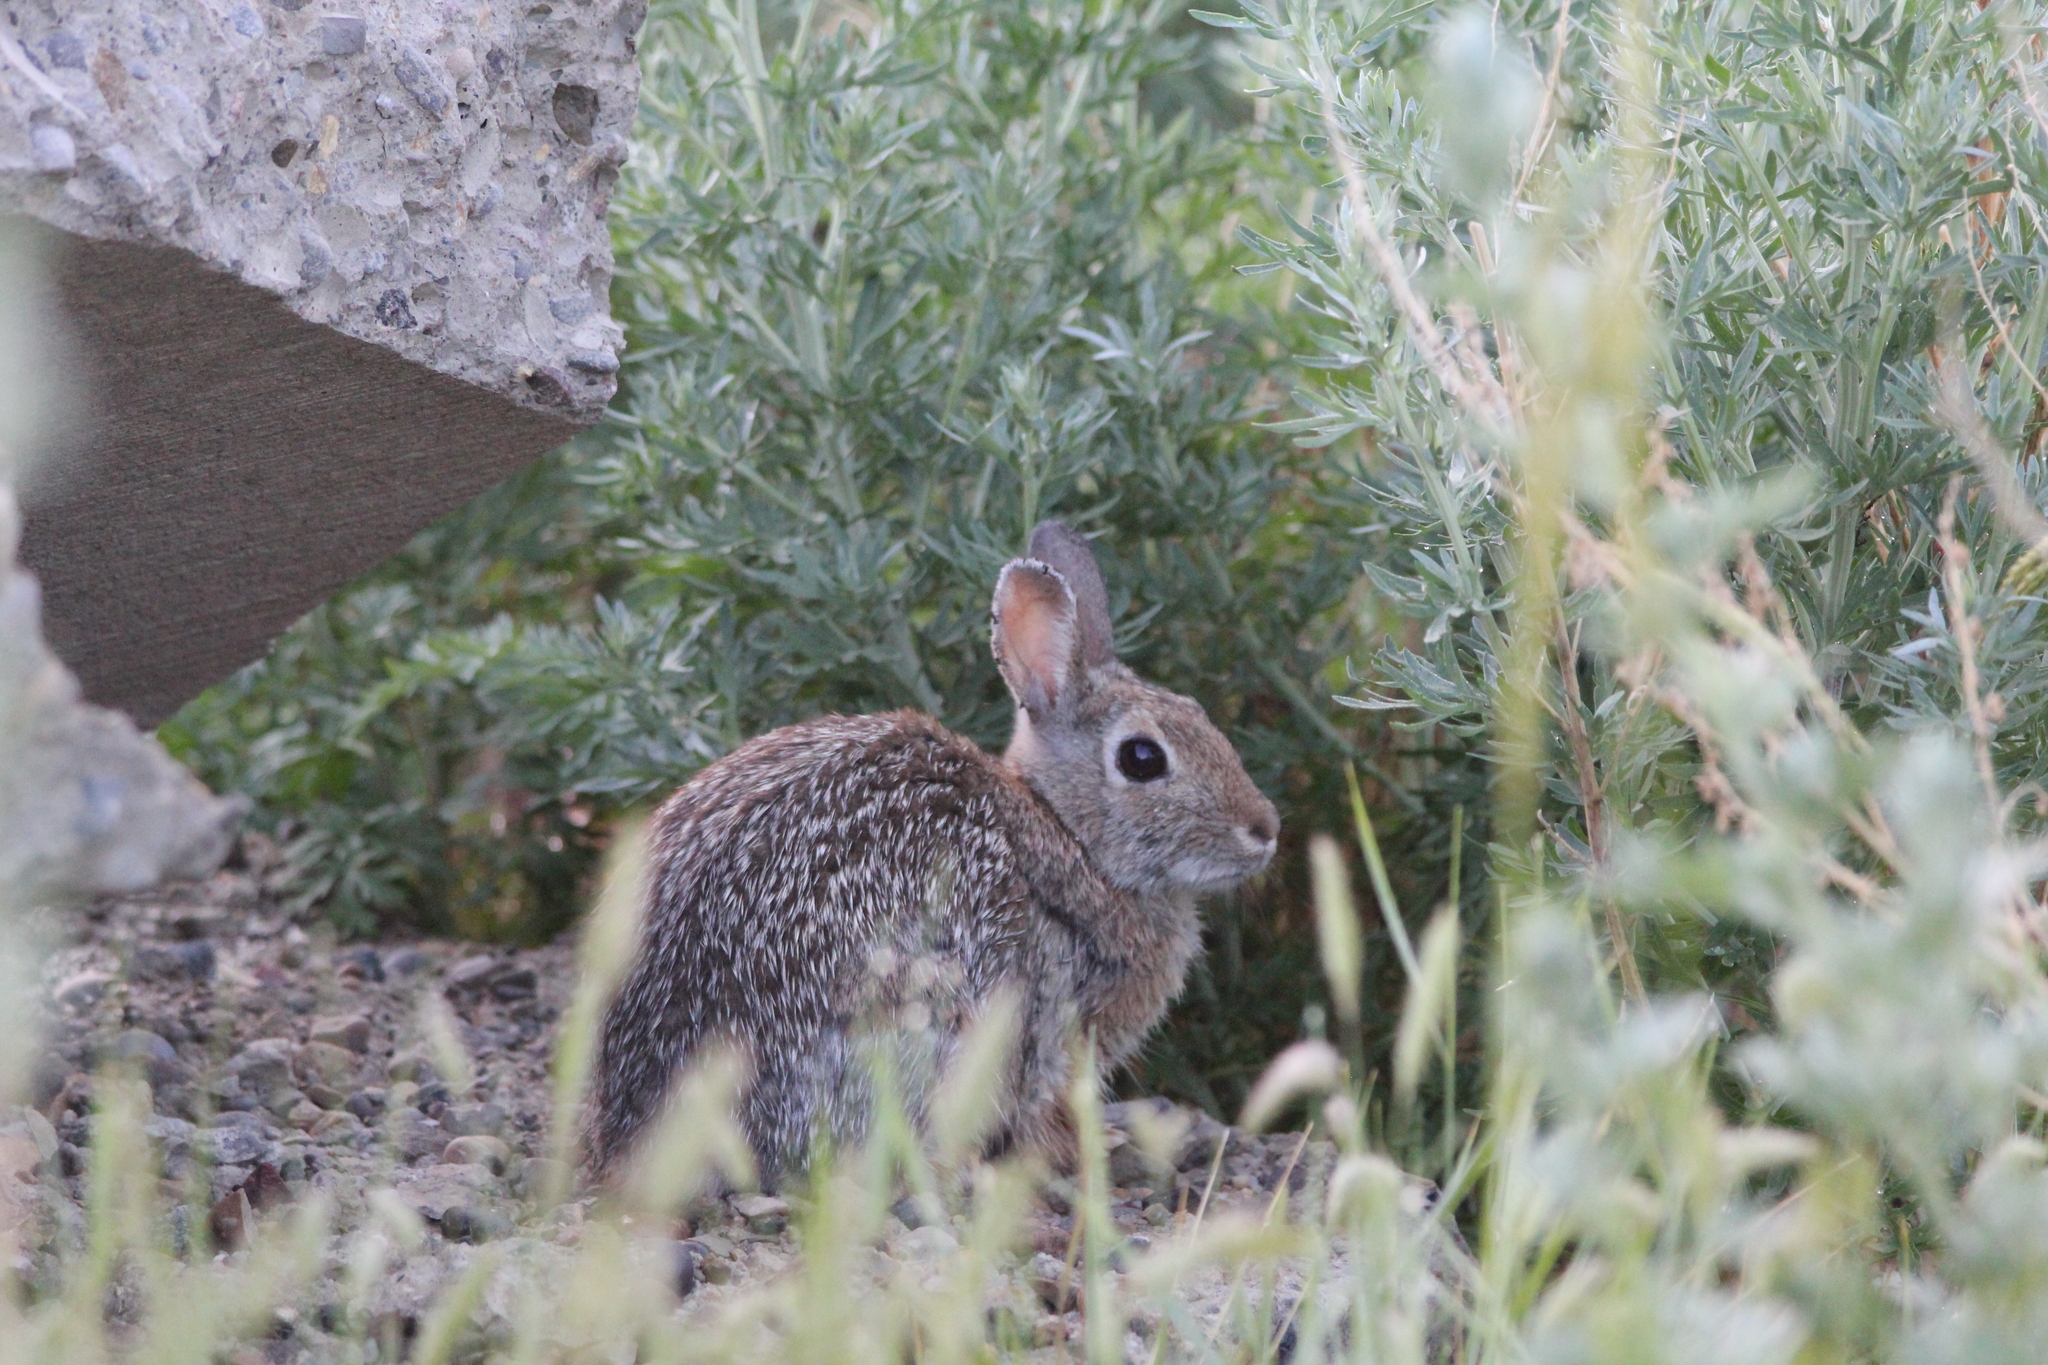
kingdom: Animalia
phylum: Chordata
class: Mammalia
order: Lagomorpha
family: Leporidae
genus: Sylvilagus
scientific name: Sylvilagus nuttallii
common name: Mountain cottontail
